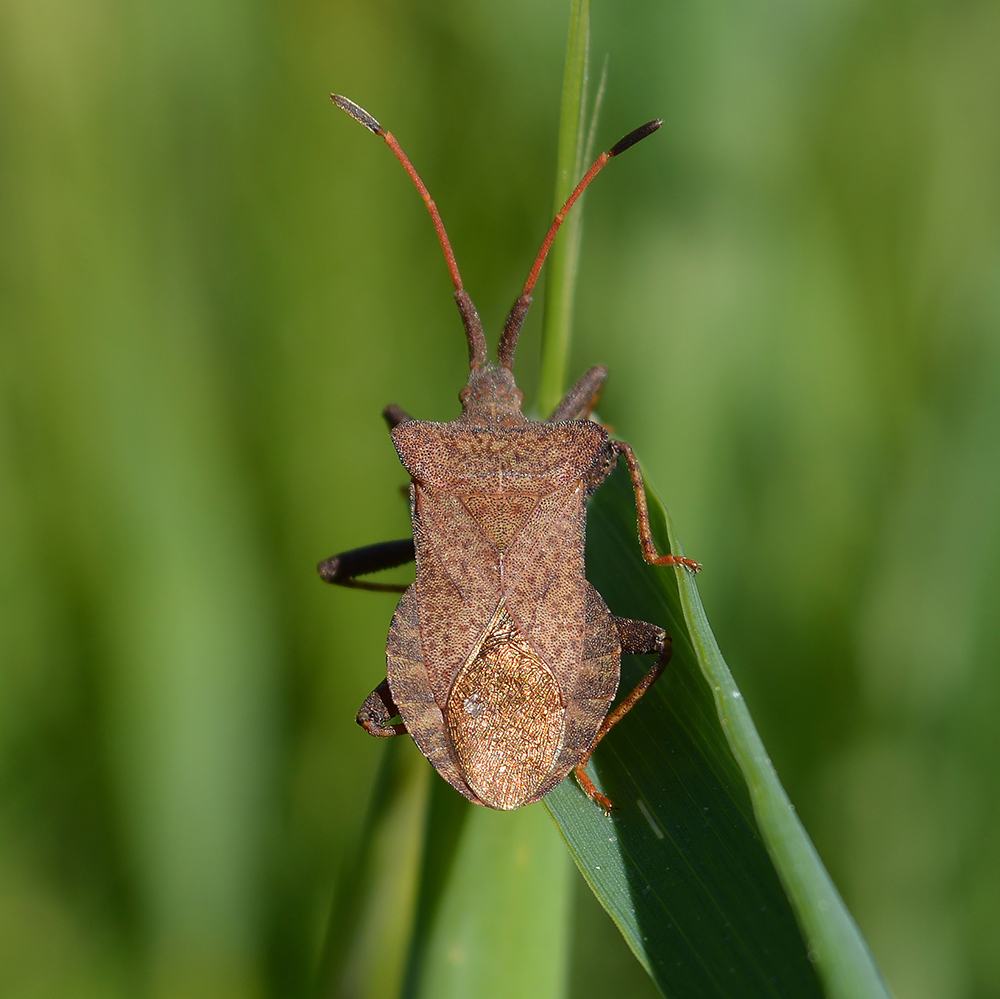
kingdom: Animalia
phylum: Arthropoda
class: Insecta
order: Hemiptera
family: Coreidae
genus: Coreus
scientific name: Coreus marginatus
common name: Dock bug
